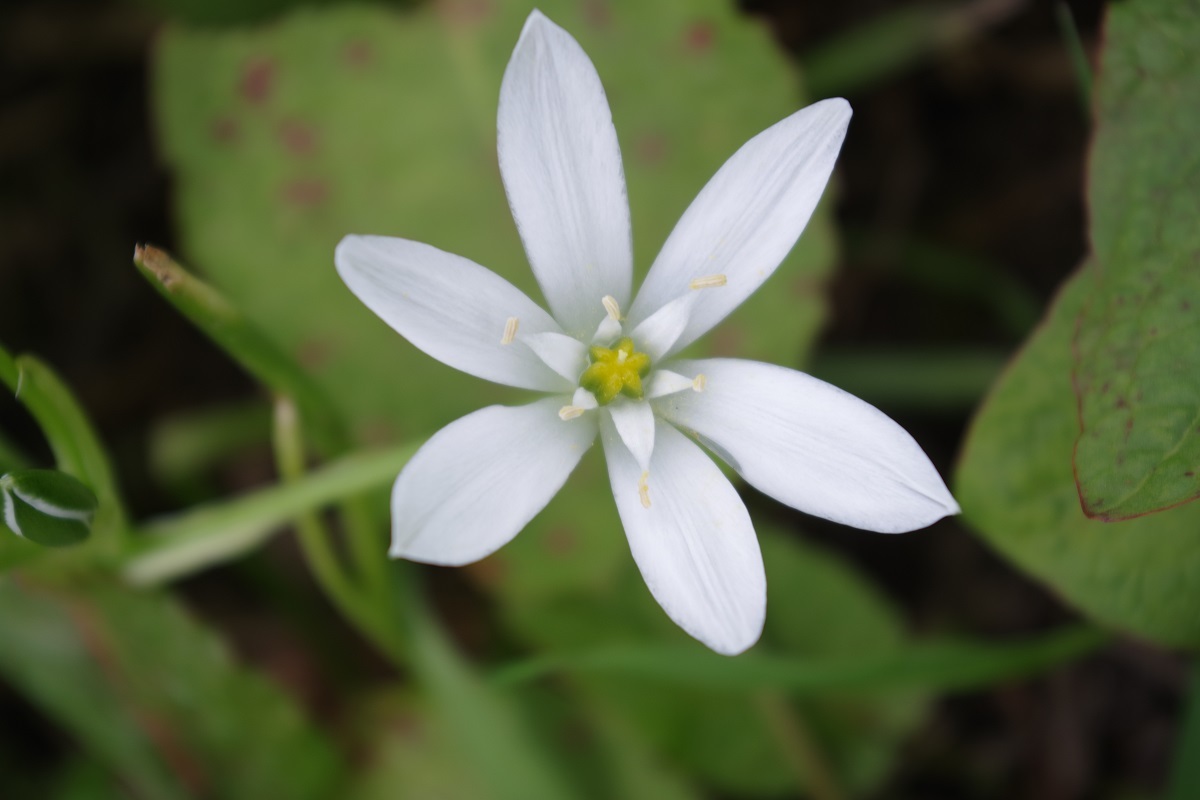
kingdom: Plantae
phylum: Tracheophyta
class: Liliopsida
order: Asparagales
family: Asparagaceae
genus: Ornithogalum
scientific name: Ornithogalum
